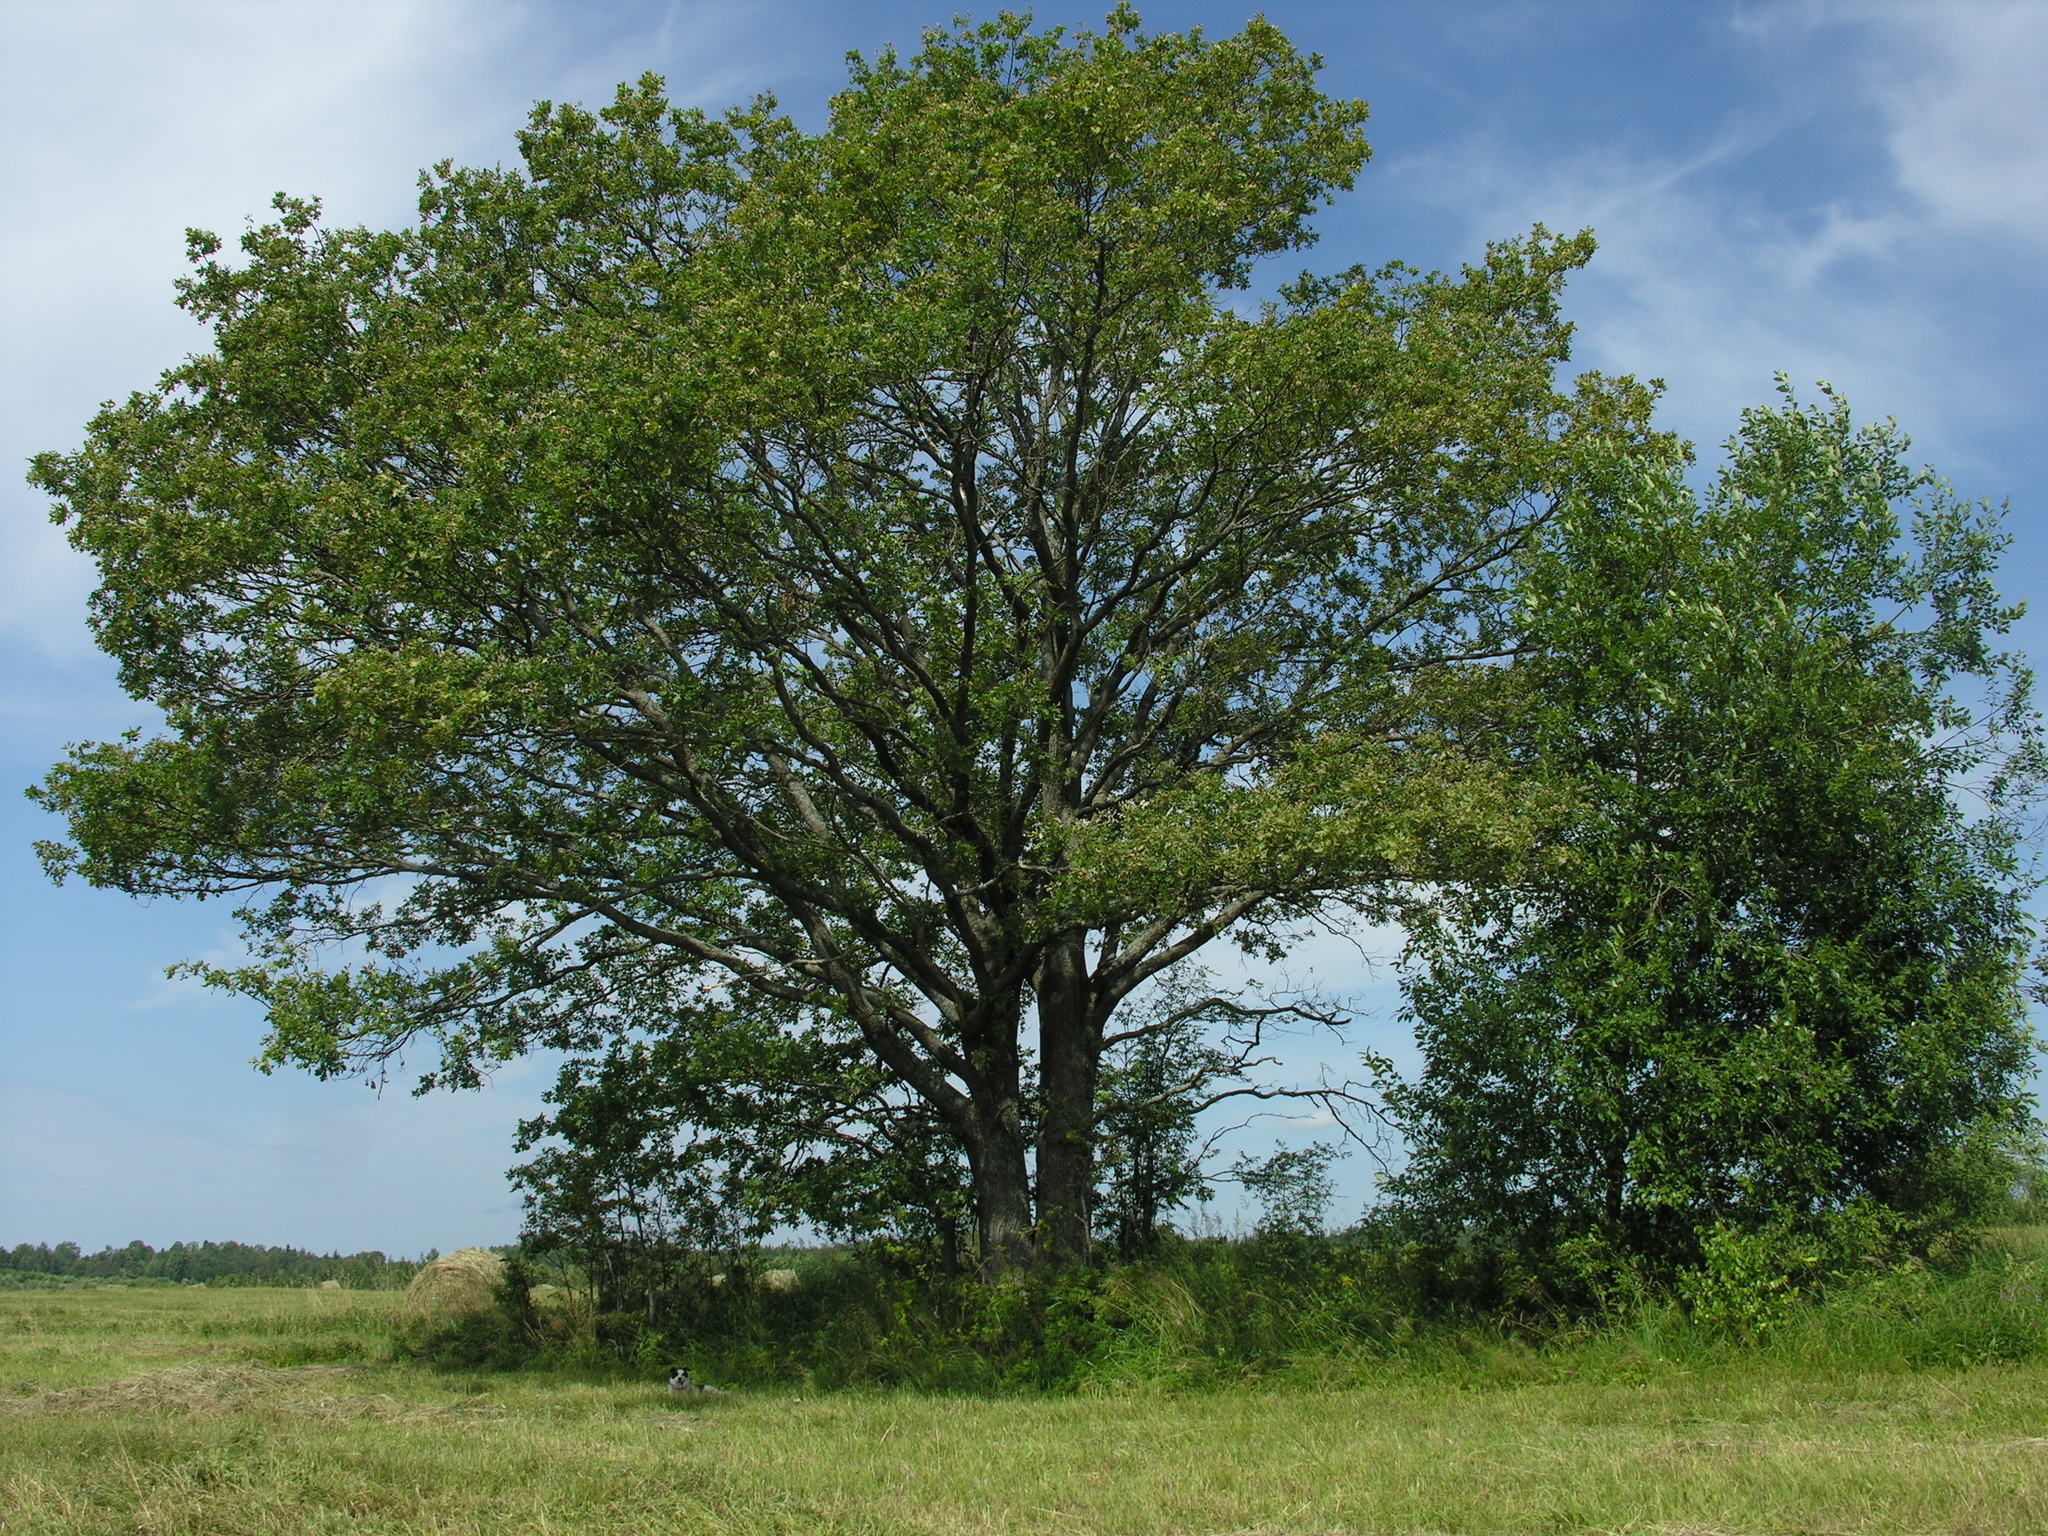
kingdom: Plantae
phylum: Tracheophyta
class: Magnoliopsida
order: Fagales
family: Fagaceae
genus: Quercus
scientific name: Quercus robur
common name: Pedunculate oak
